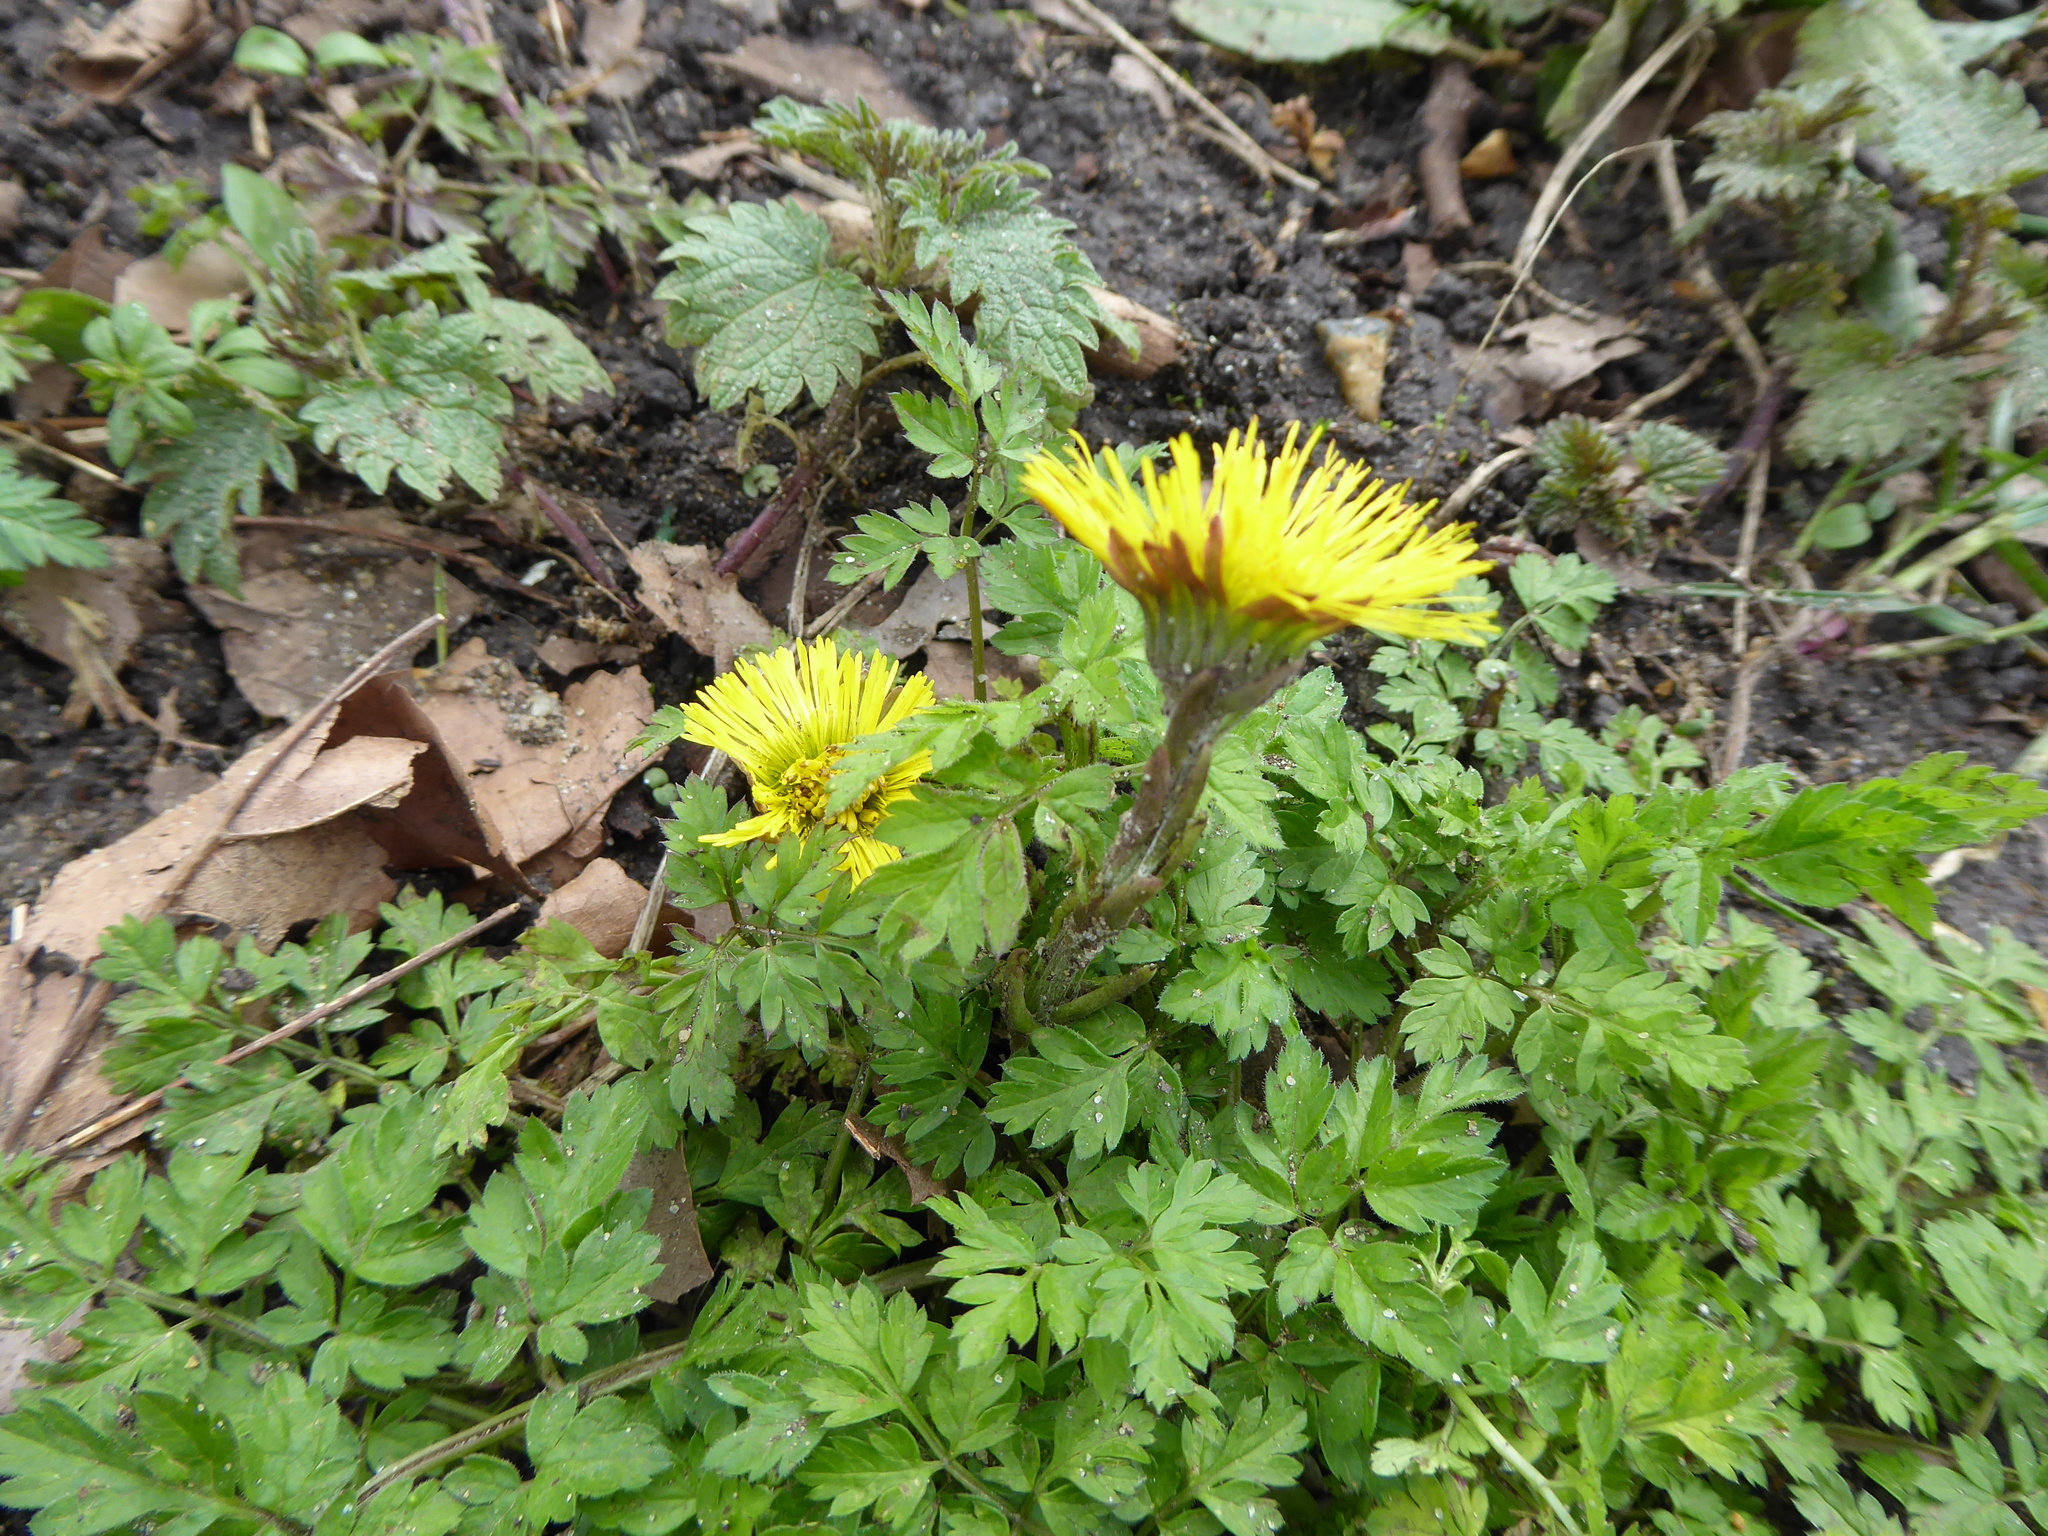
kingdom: Plantae
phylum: Tracheophyta
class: Magnoliopsida
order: Asterales
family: Asteraceae
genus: Tussilago
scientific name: Tussilago farfara
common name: Coltsfoot
